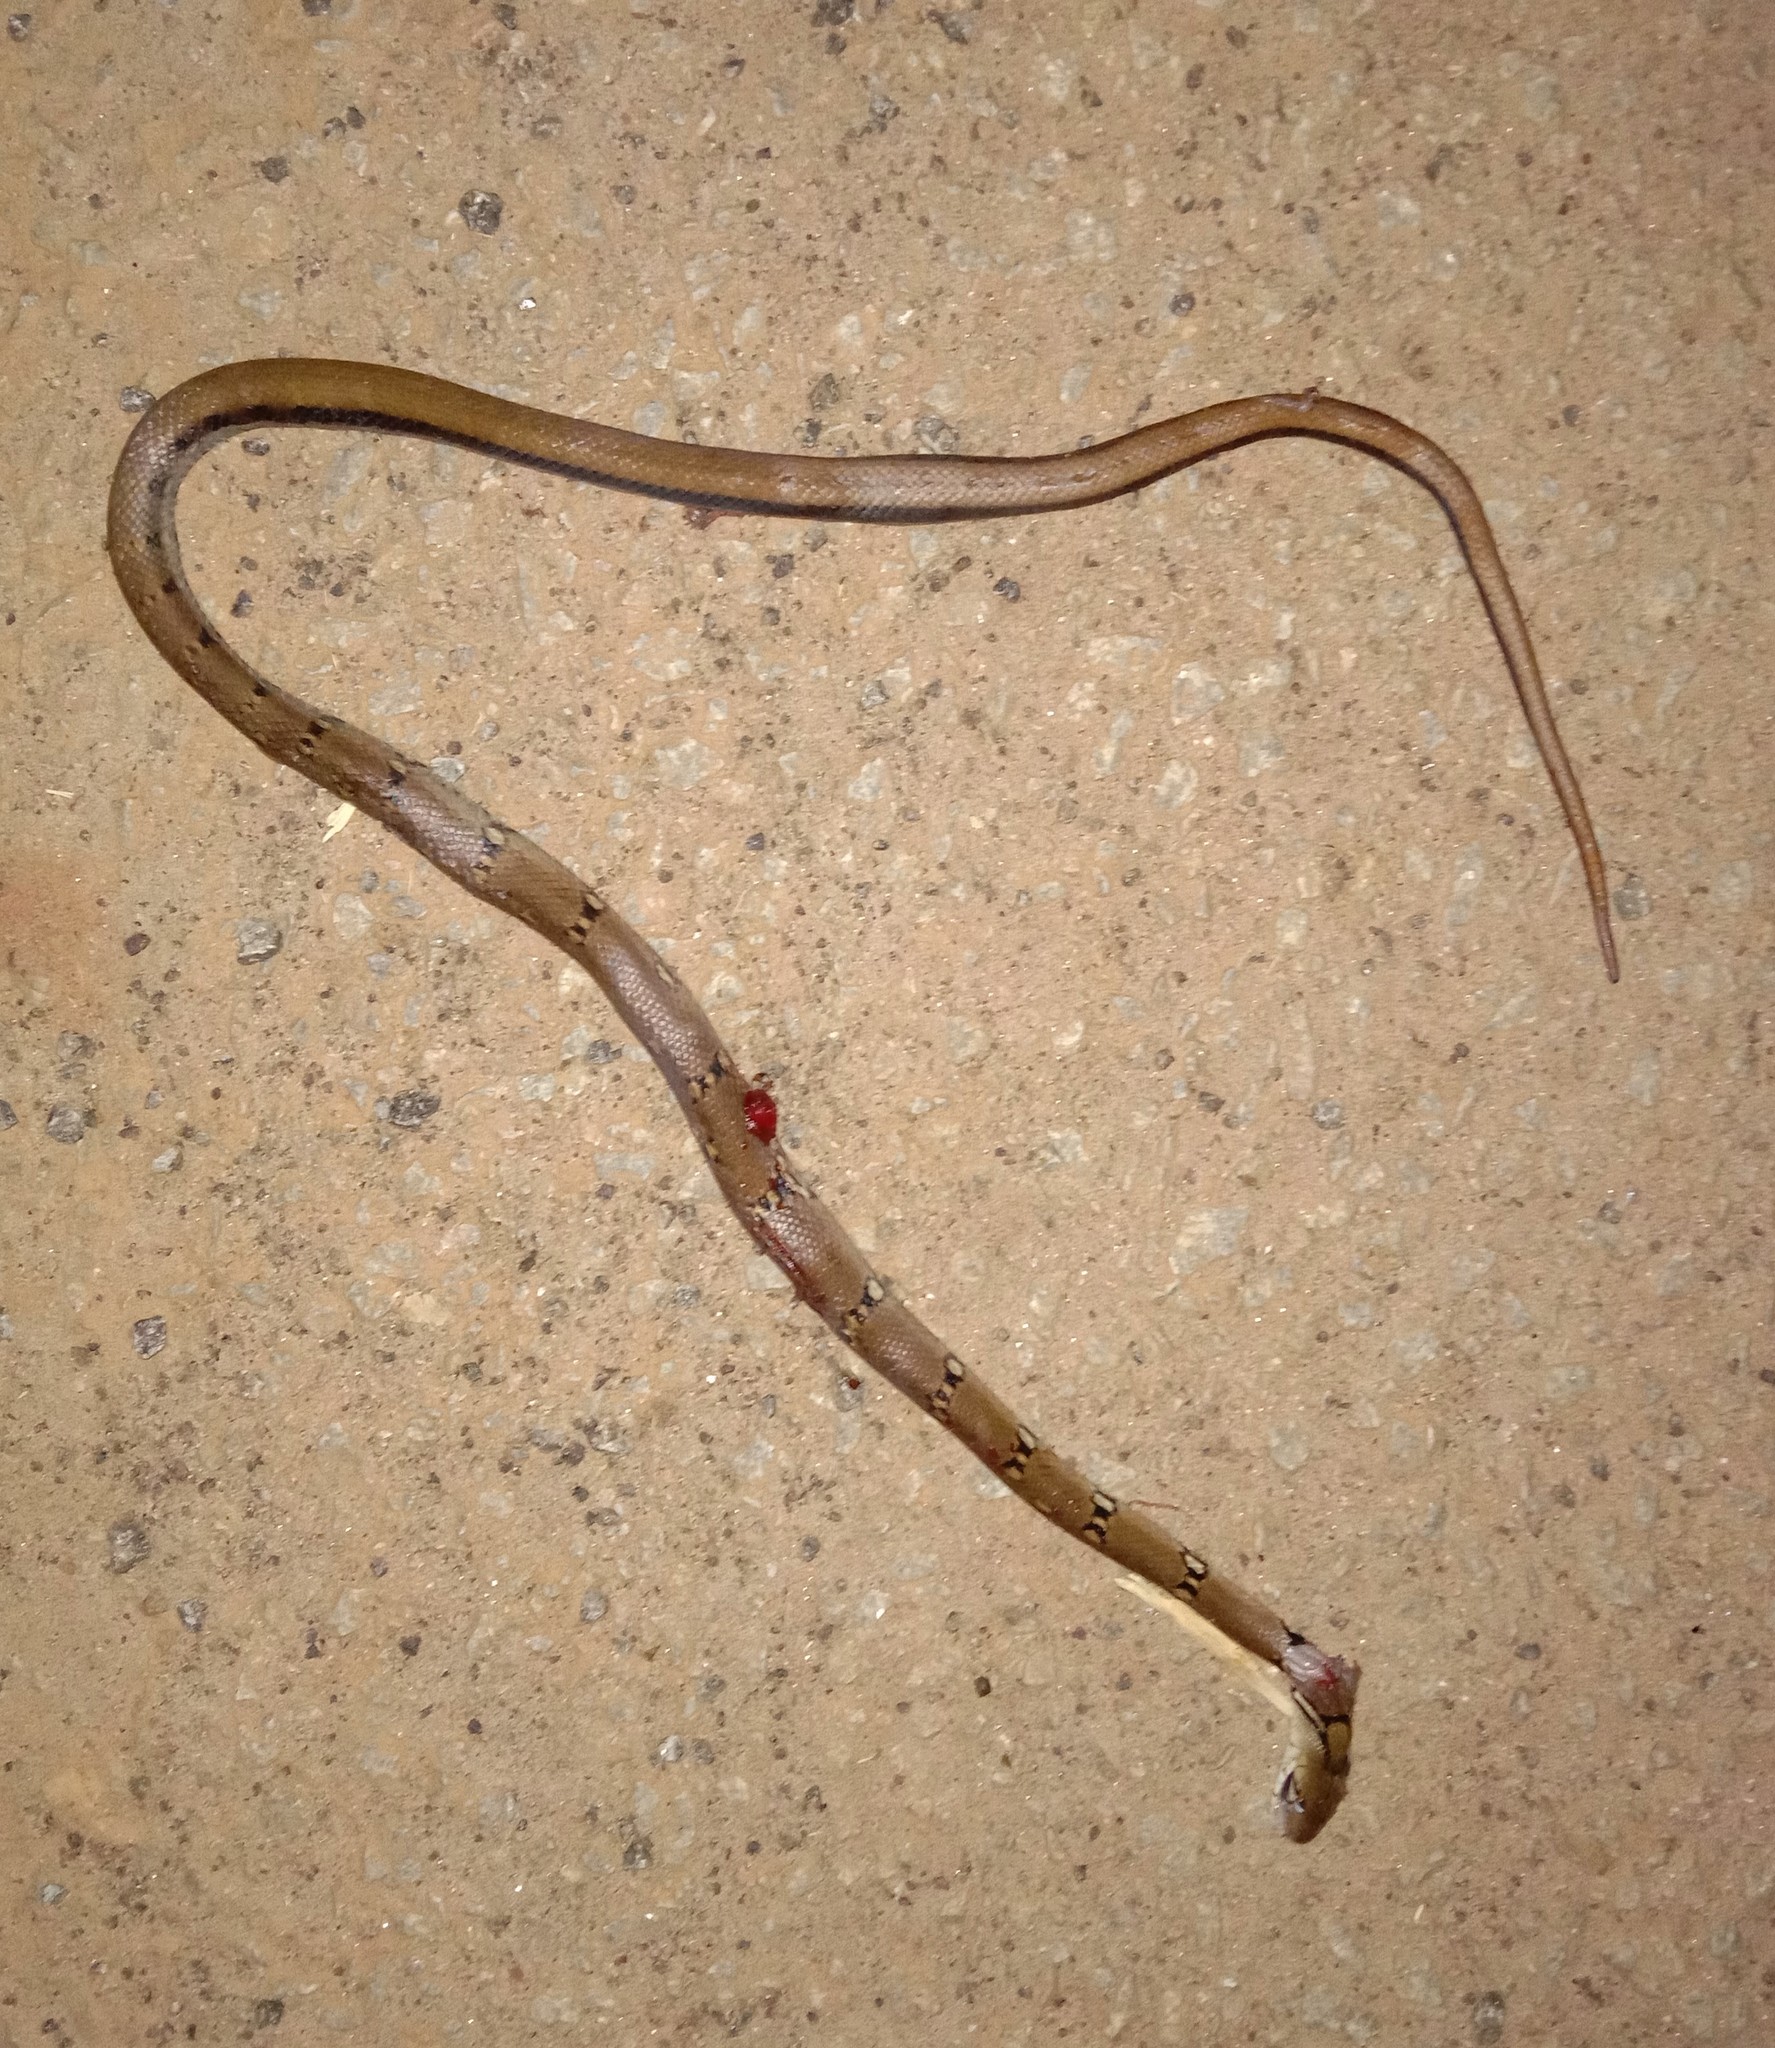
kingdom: Animalia
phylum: Chordata
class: Squamata
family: Colubridae
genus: Coelognathus
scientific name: Coelognathus helena
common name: Trinket snake
